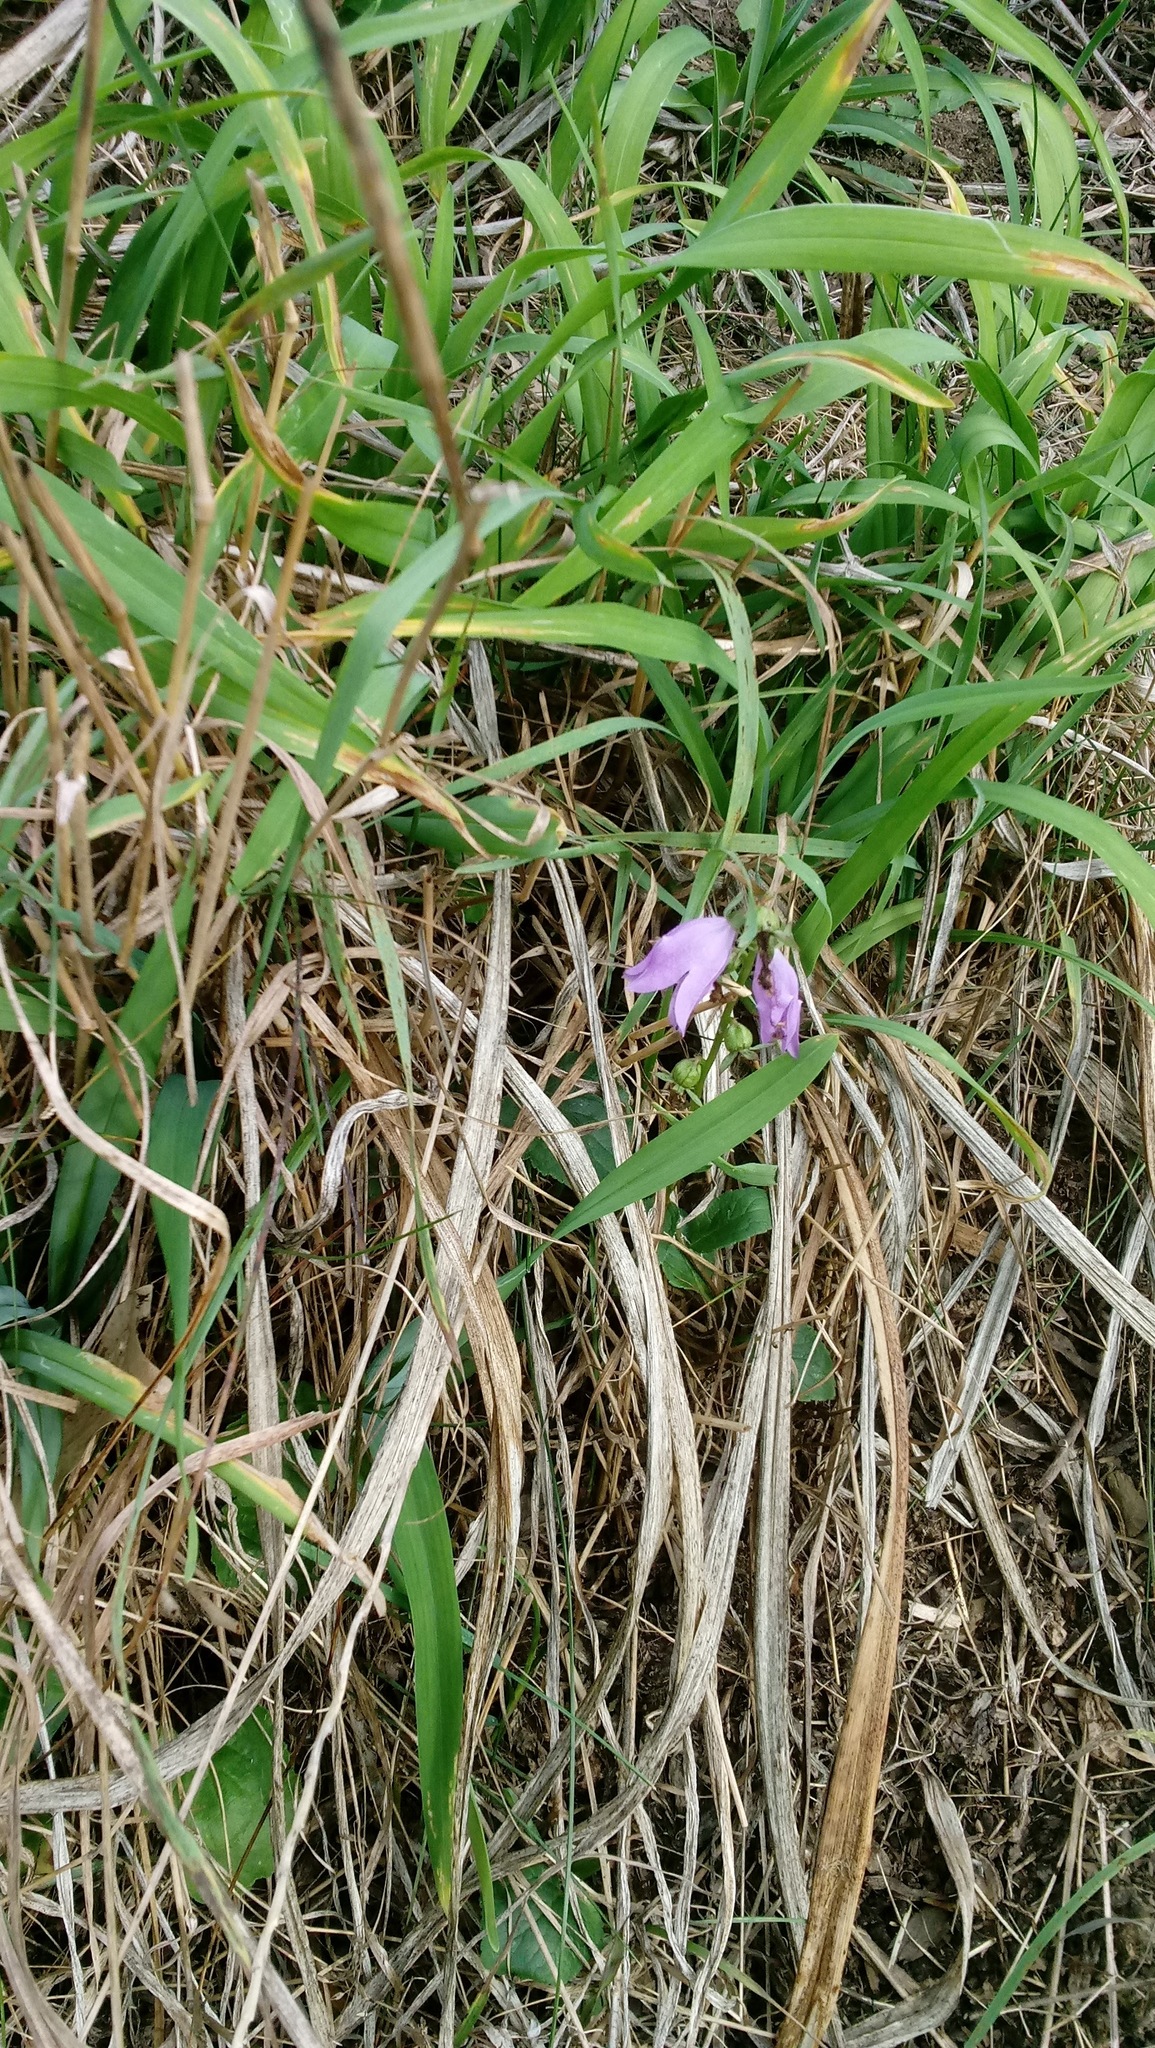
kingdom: Plantae
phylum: Tracheophyta
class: Magnoliopsida
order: Asterales
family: Campanulaceae
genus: Campanula
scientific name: Campanula rapunculoides
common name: Creeping bellflower
